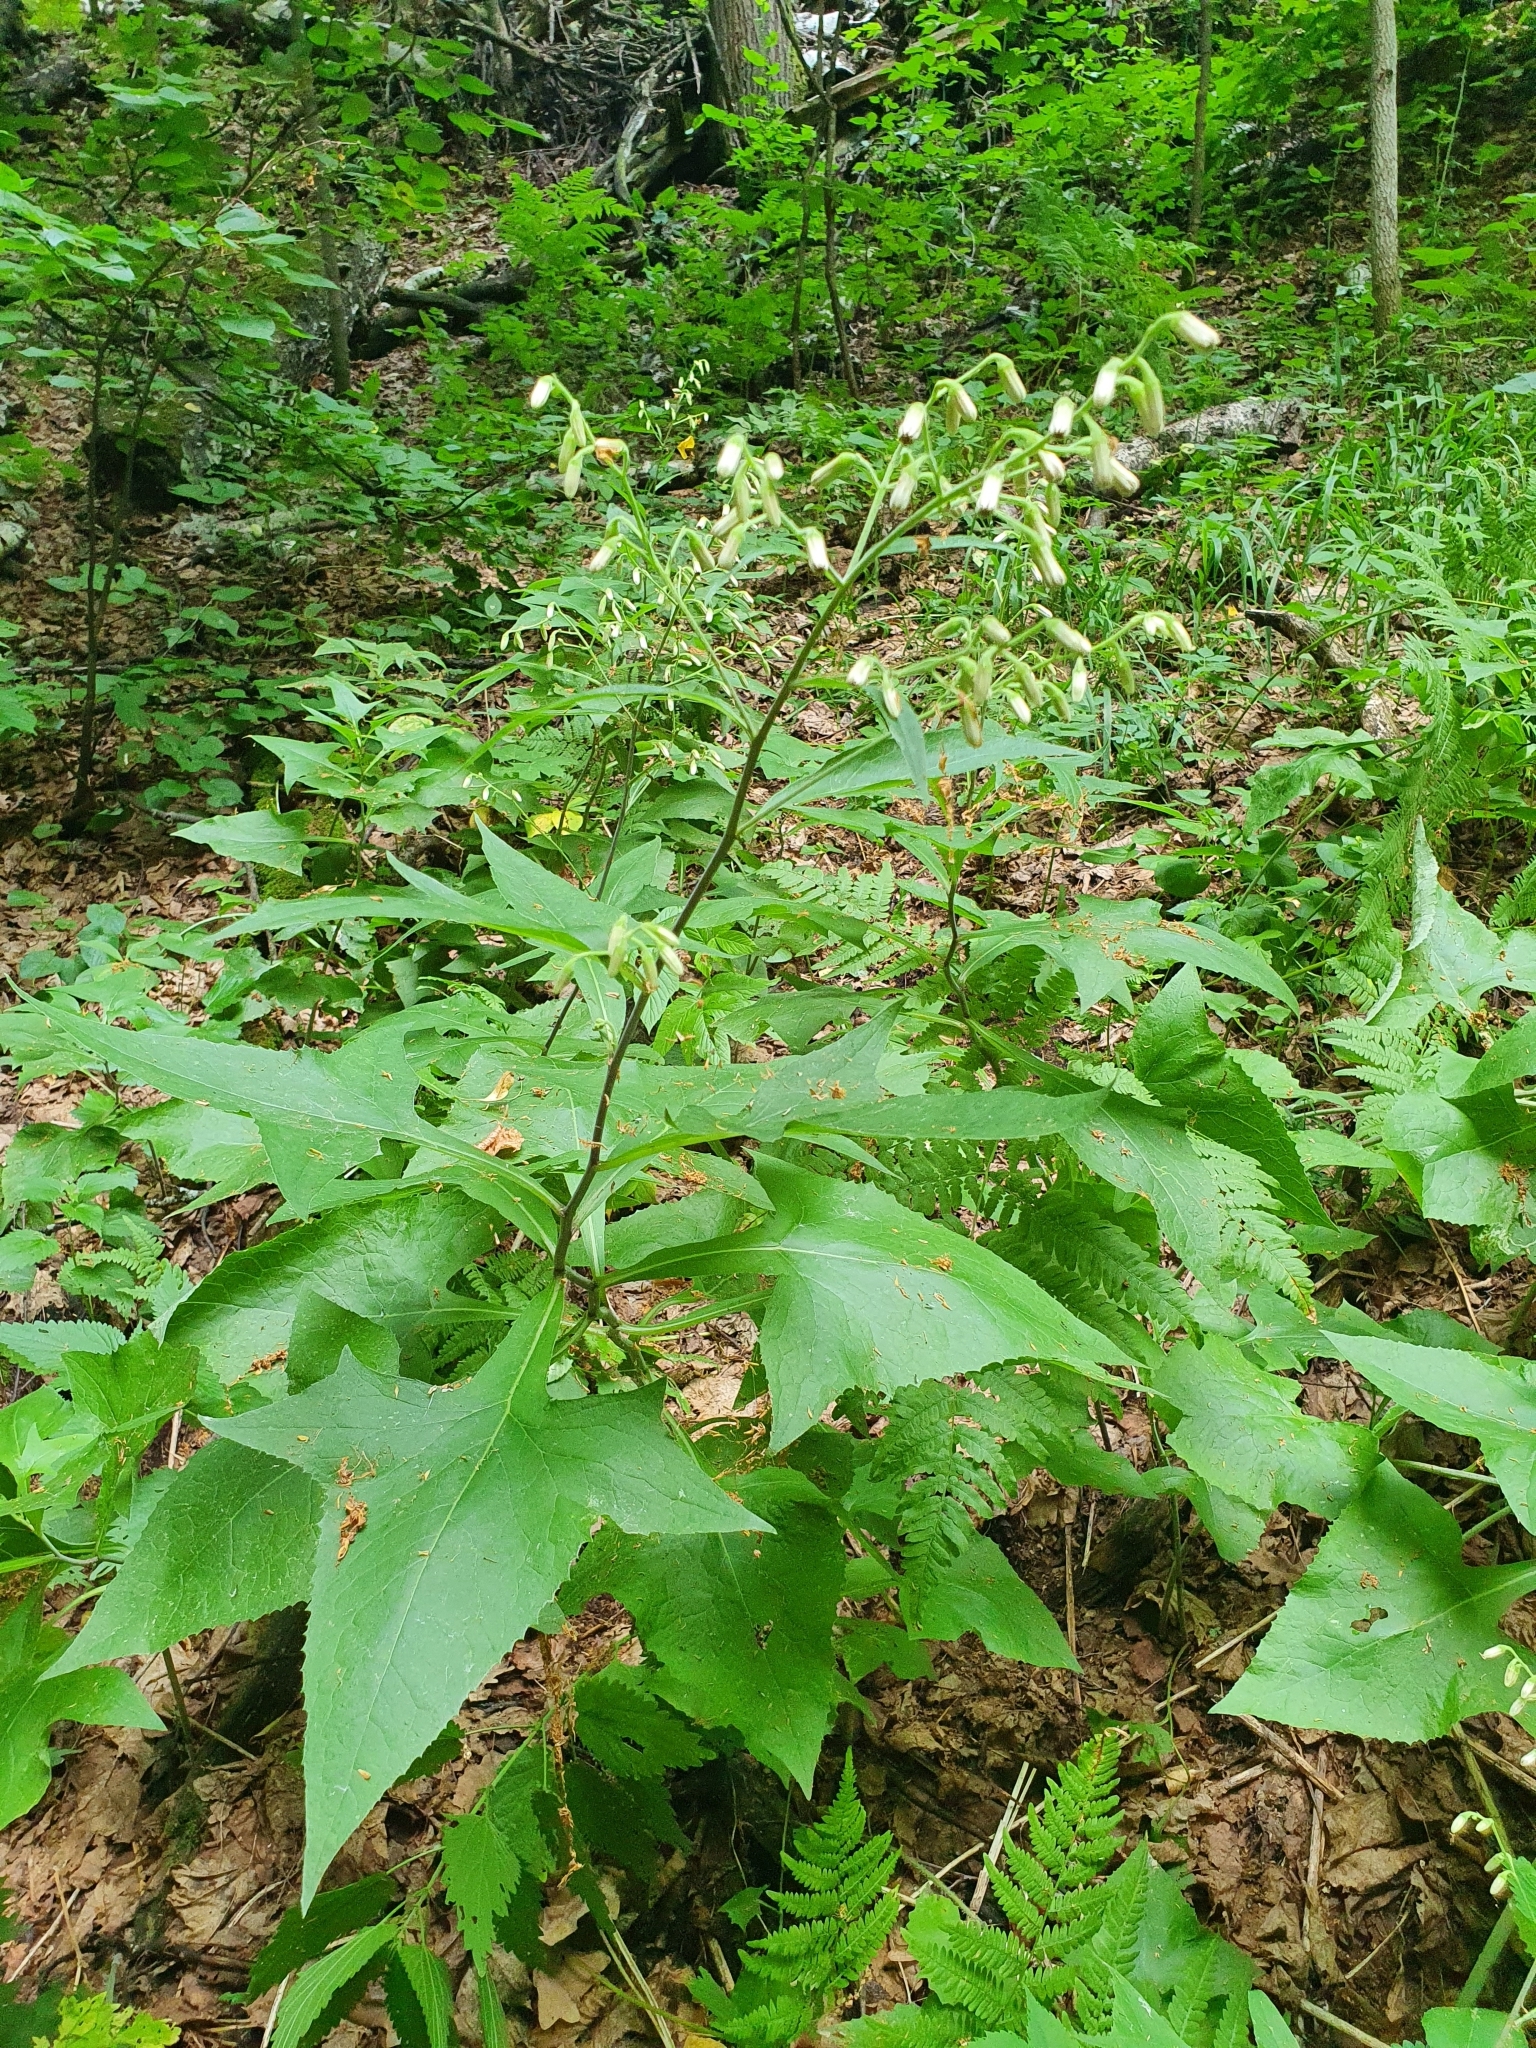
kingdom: Plantae
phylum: Tracheophyta
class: Magnoliopsida
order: Asterales
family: Asteraceae
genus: Parasenecio
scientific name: Parasenecio hastatus
